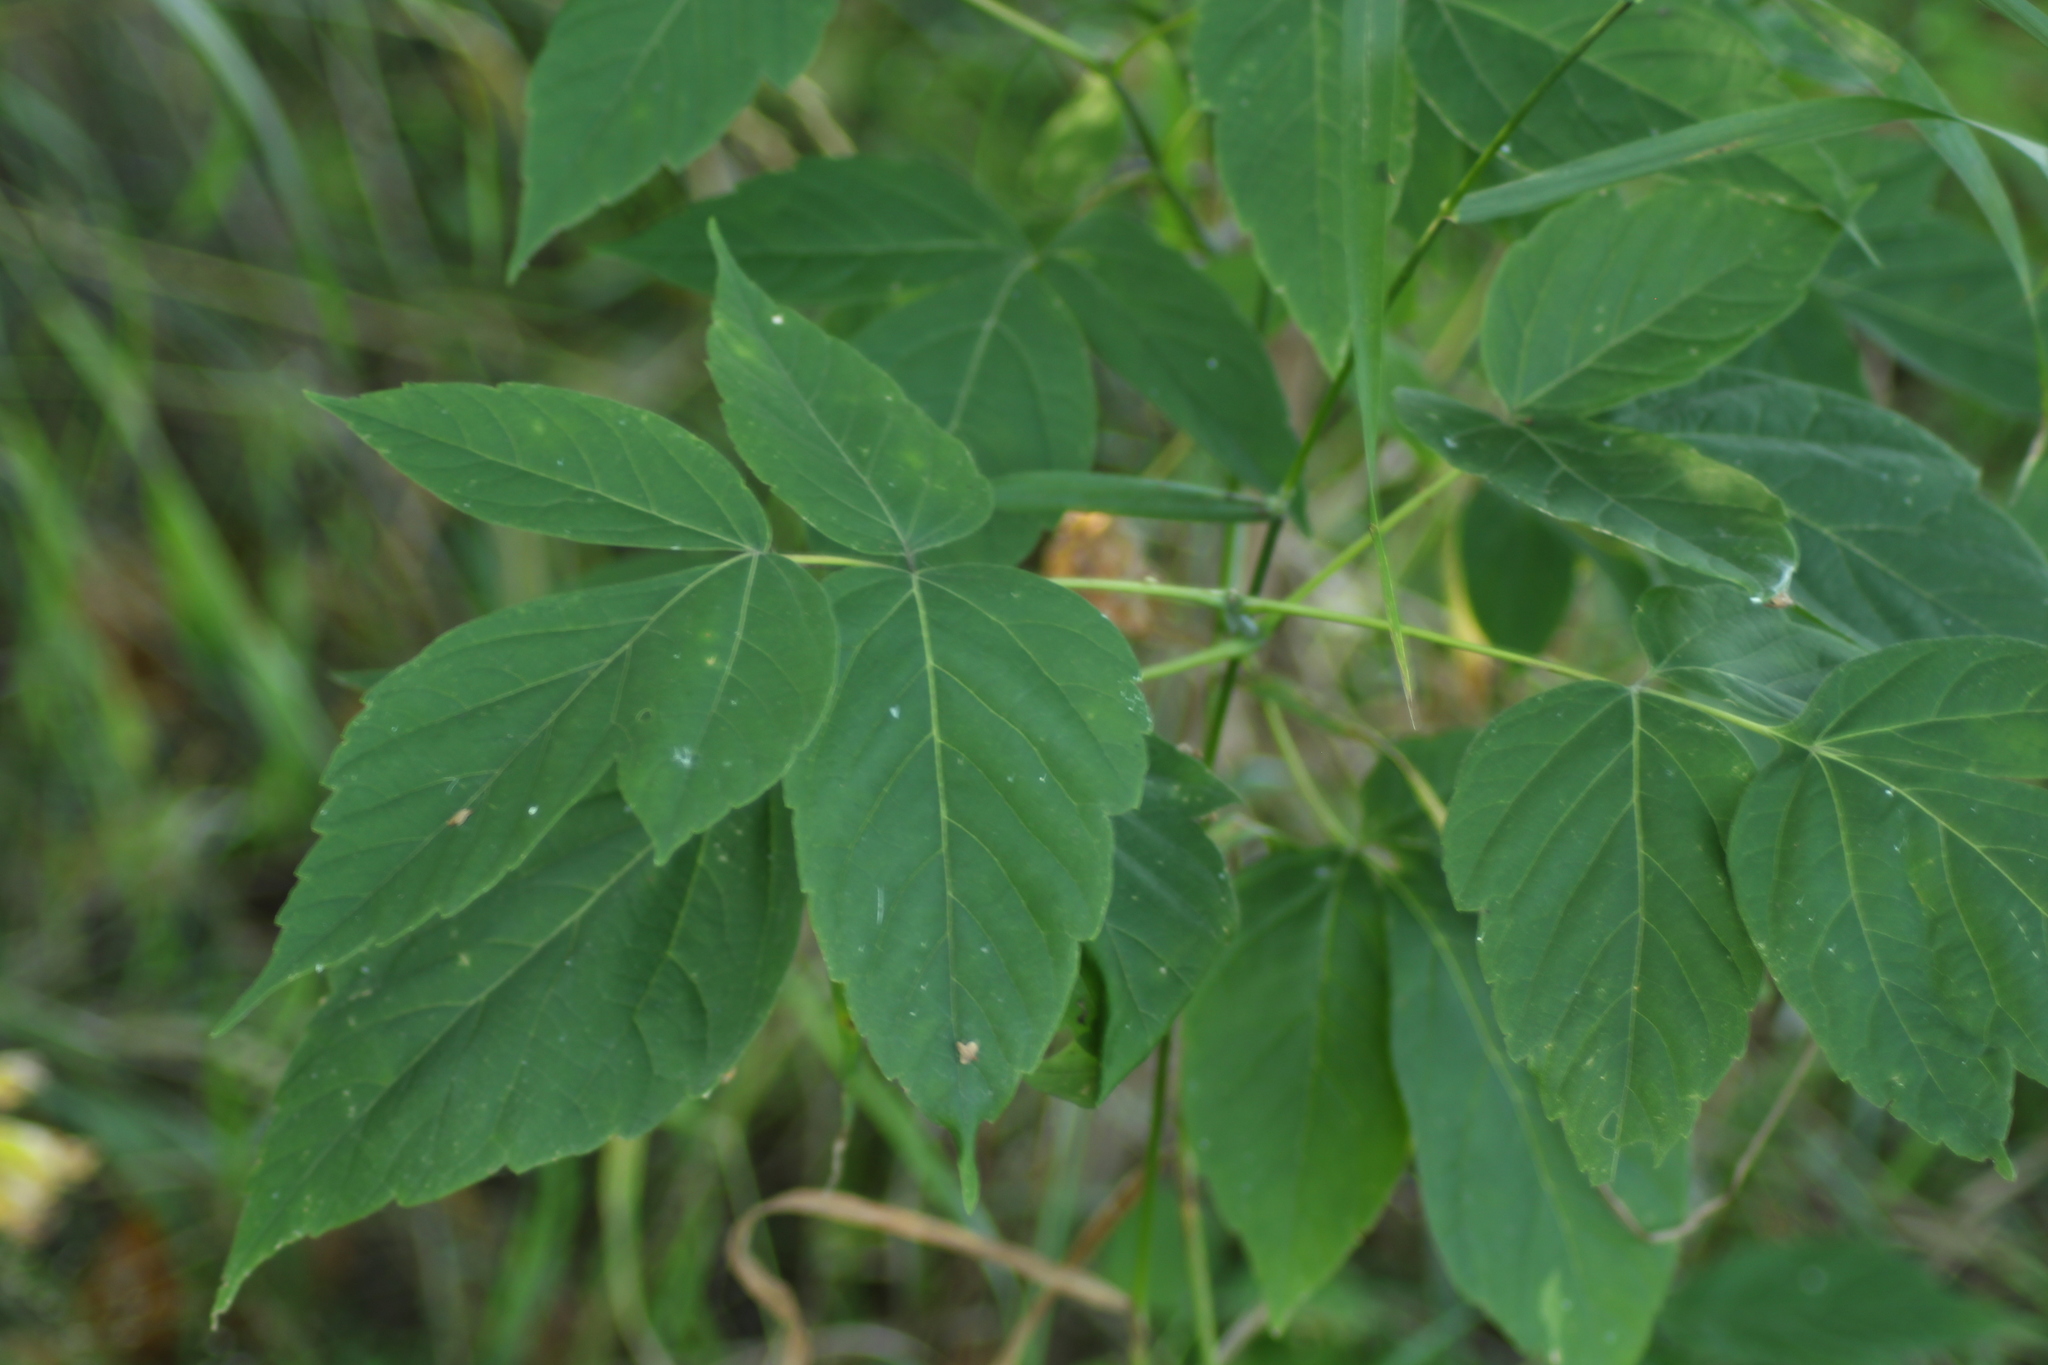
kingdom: Plantae
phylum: Tracheophyta
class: Magnoliopsida
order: Sapindales
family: Sapindaceae
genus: Acer
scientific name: Acer negundo
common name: Ashleaf maple
